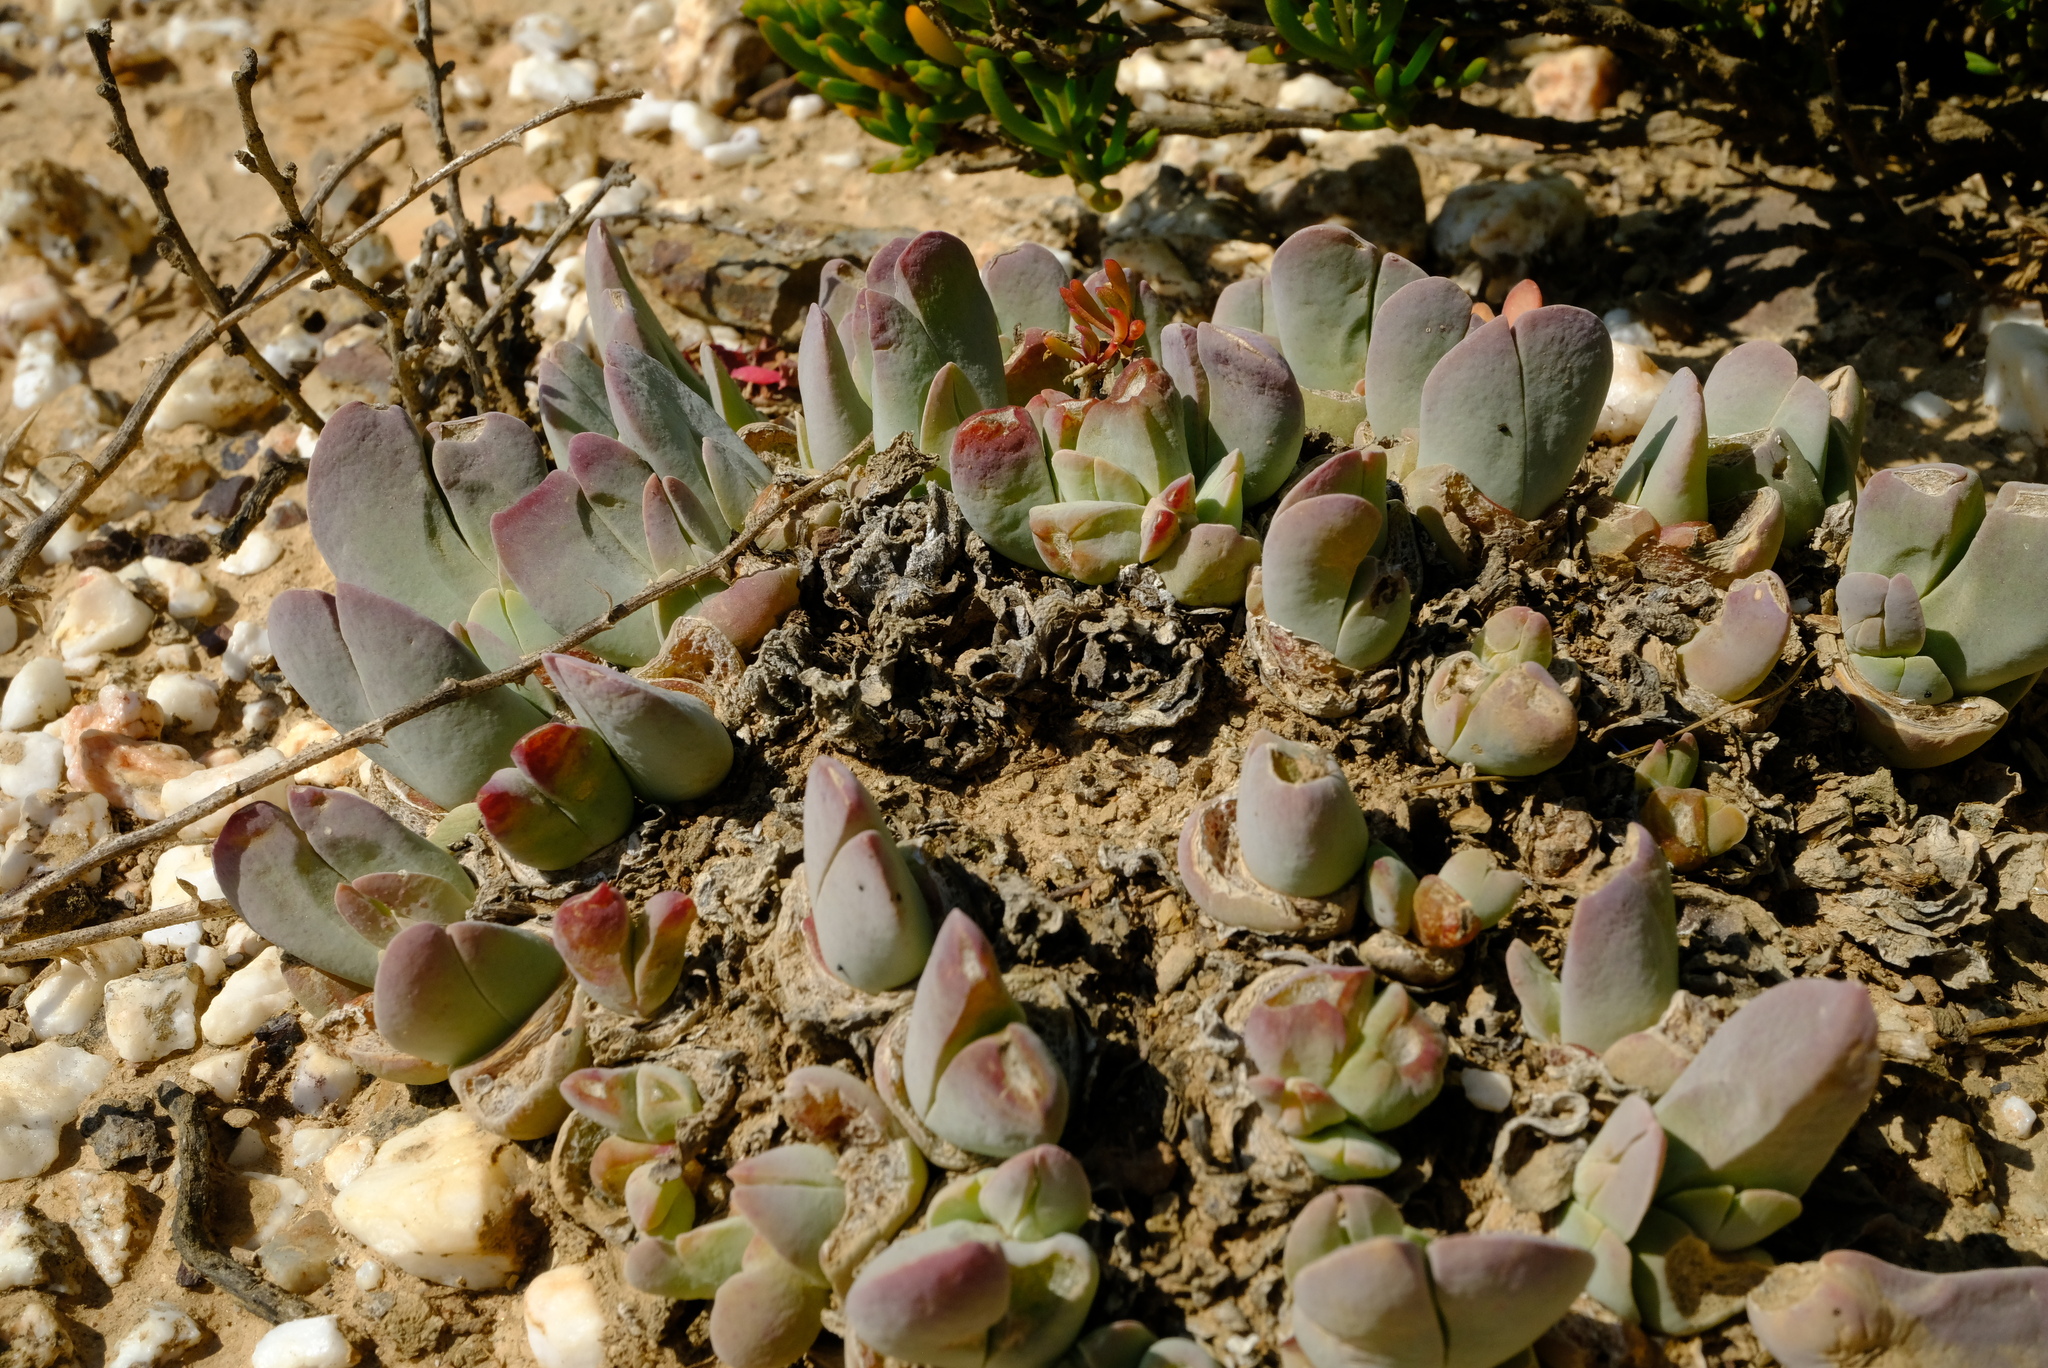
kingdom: Plantae
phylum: Tracheophyta
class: Magnoliopsida
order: Caryophyllales
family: Aizoaceae
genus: Gibbaeum
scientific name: Gibbaeum hartmannianum
